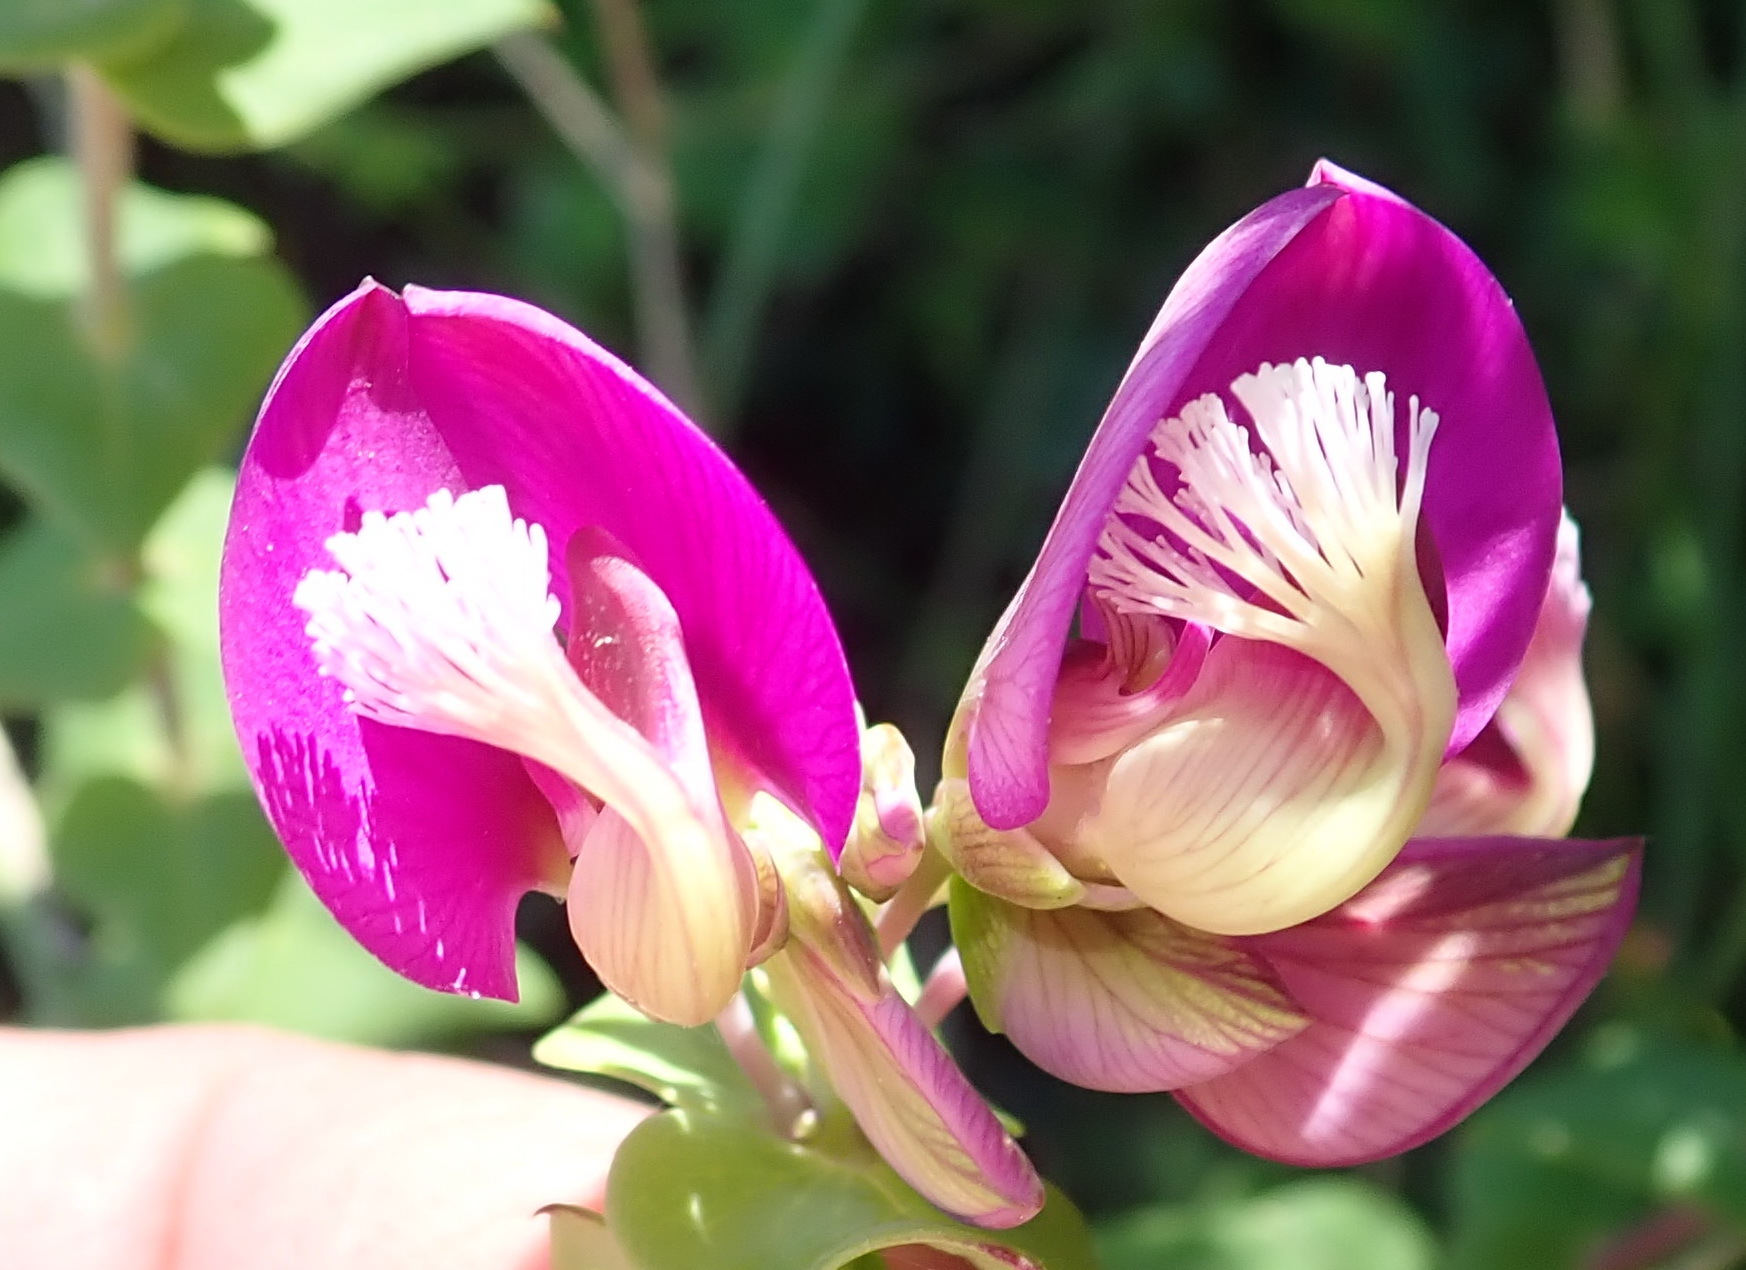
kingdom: Plantae
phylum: Tracheophyta
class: Magnoliopsida
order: Fabales
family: Polygalaceae
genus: Polygala
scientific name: Polygala fruticosa
